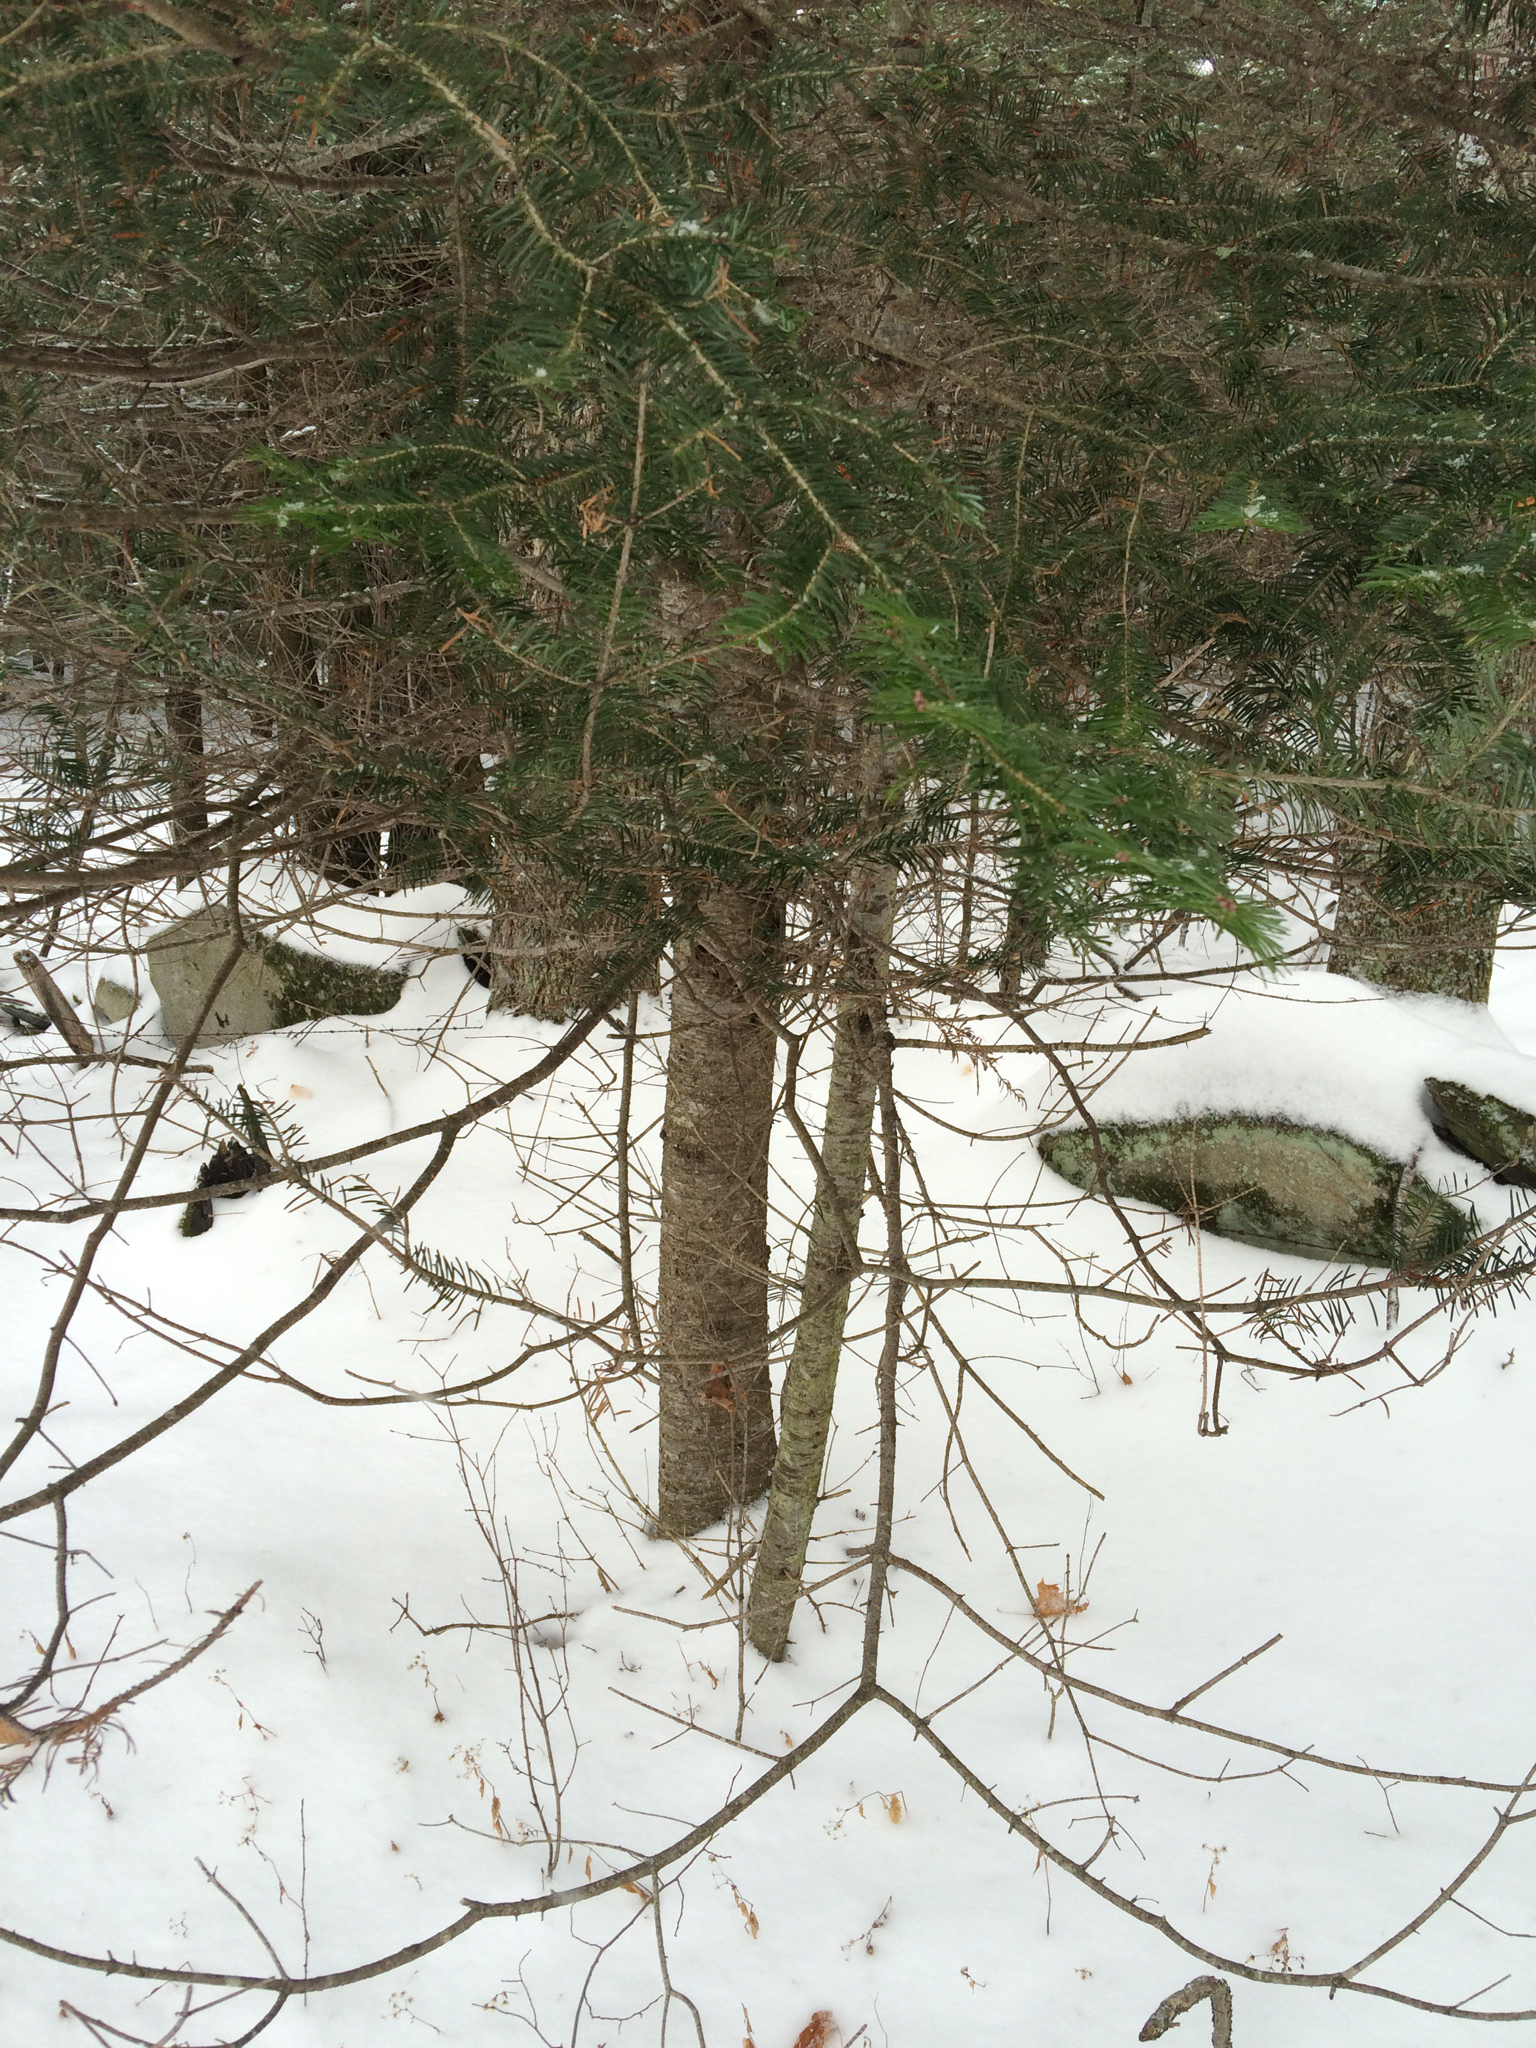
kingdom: Plantae
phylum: Tracheophyta
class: Pinopsida
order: Pinales
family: Pinaceae
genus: Abies
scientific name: Abies balsamea
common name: Balsam fir
